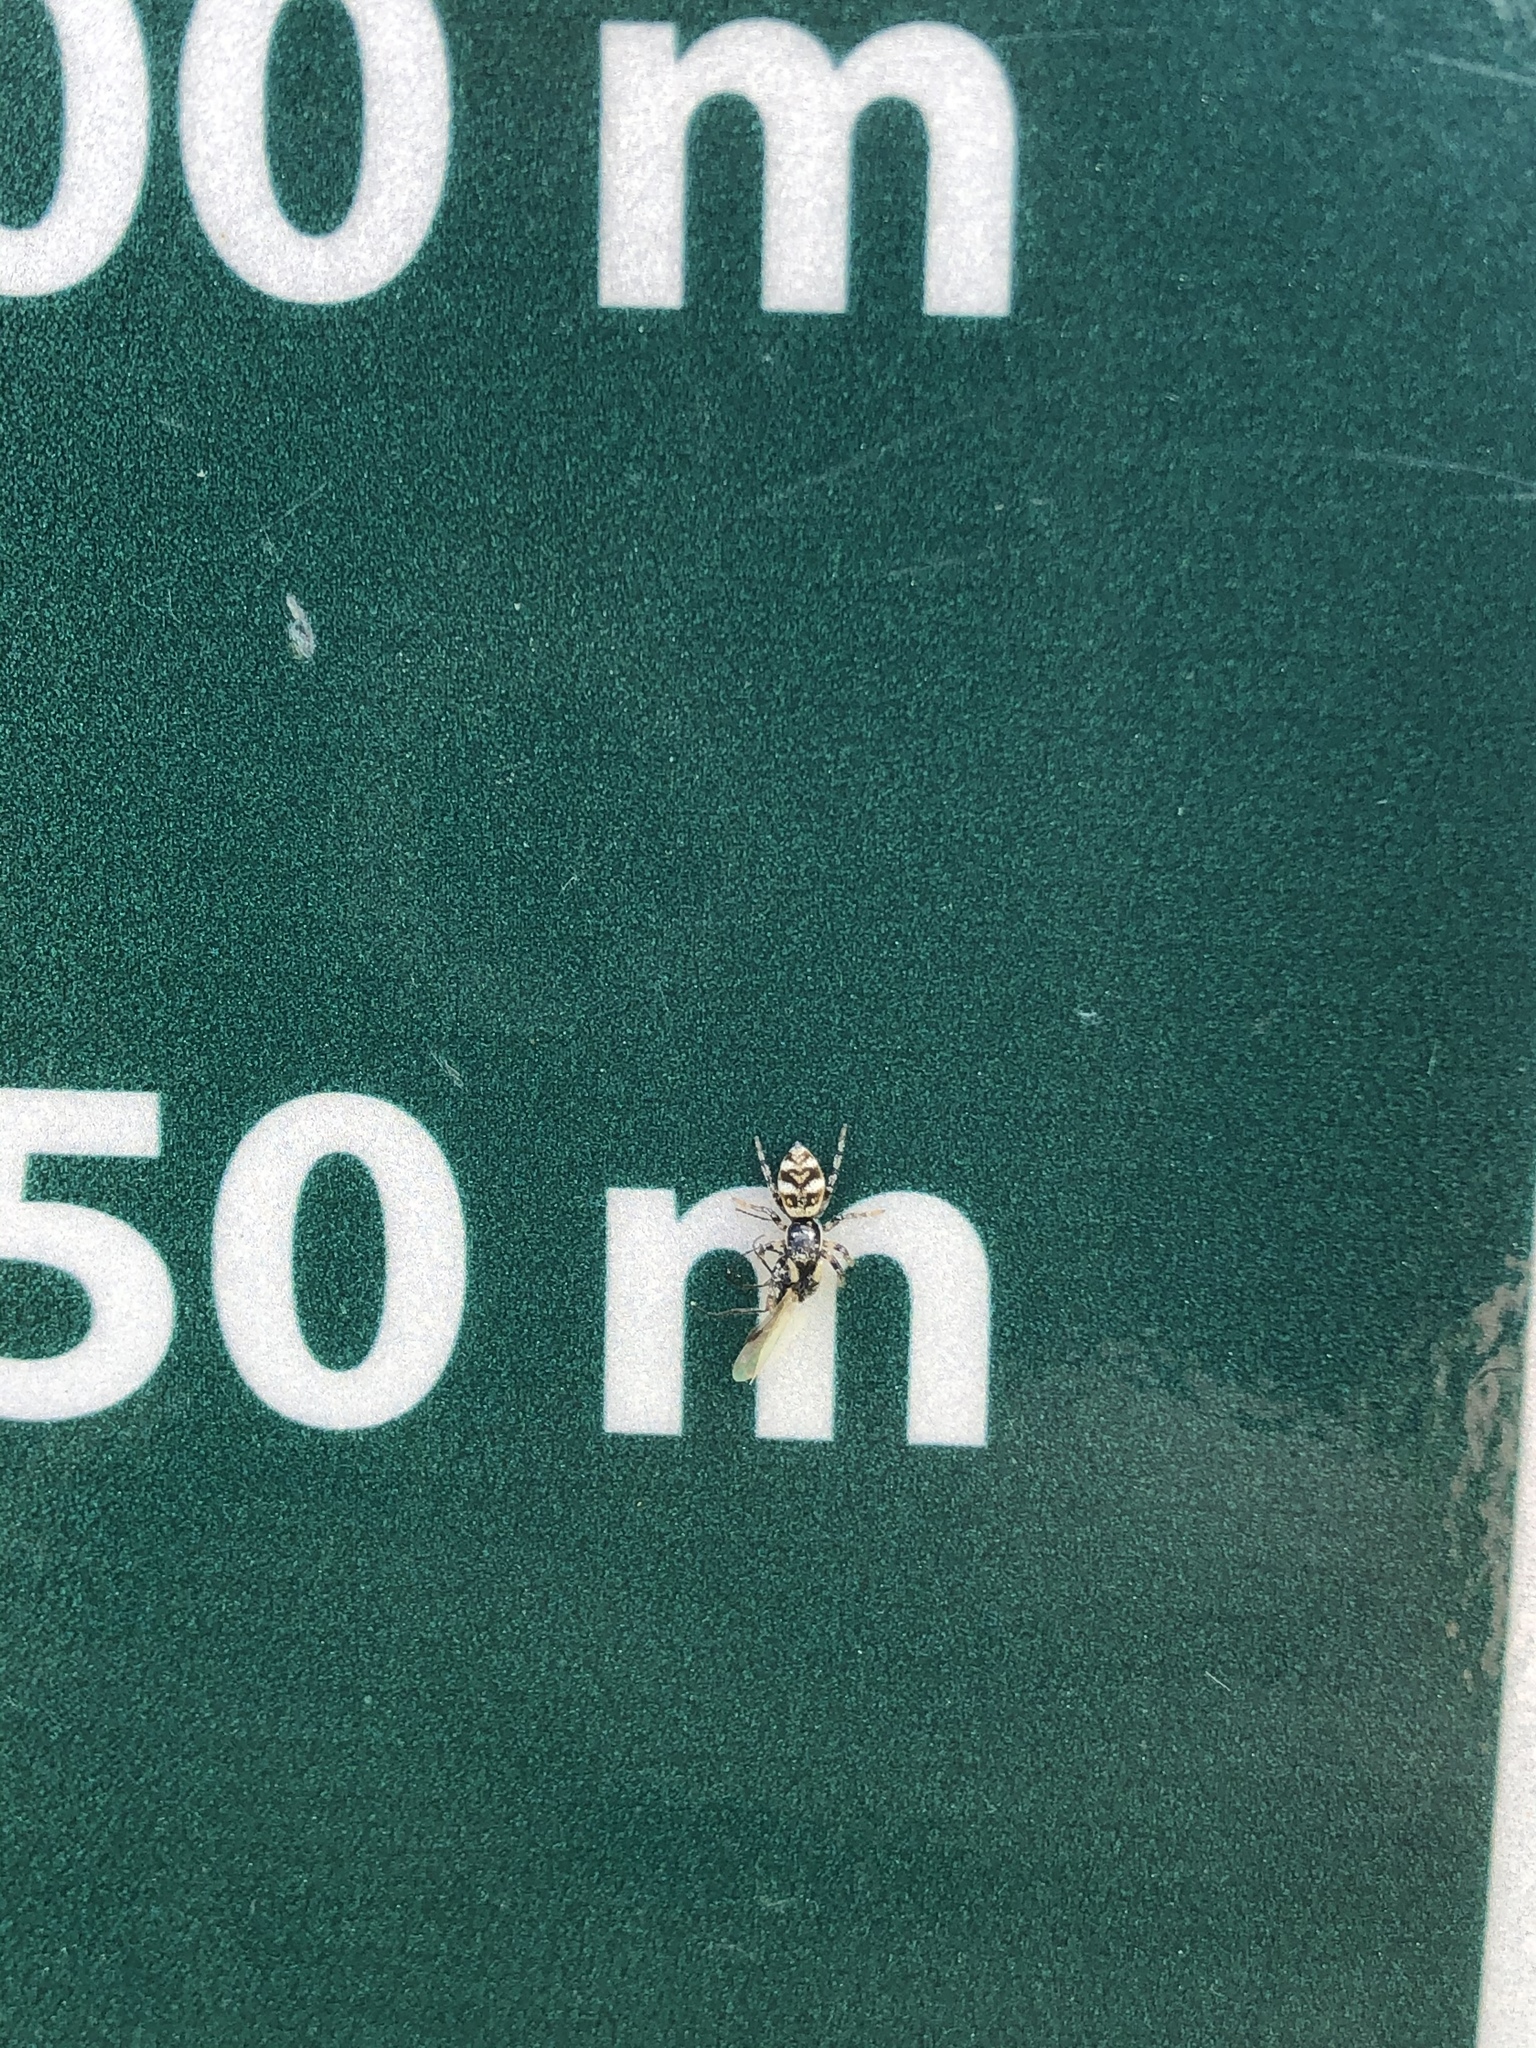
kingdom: Animalia
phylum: Arthropoda
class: Arachnida
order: Araneae
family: Salticidae
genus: Salticus
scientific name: Salticus scenicus
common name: Zebra jumper
